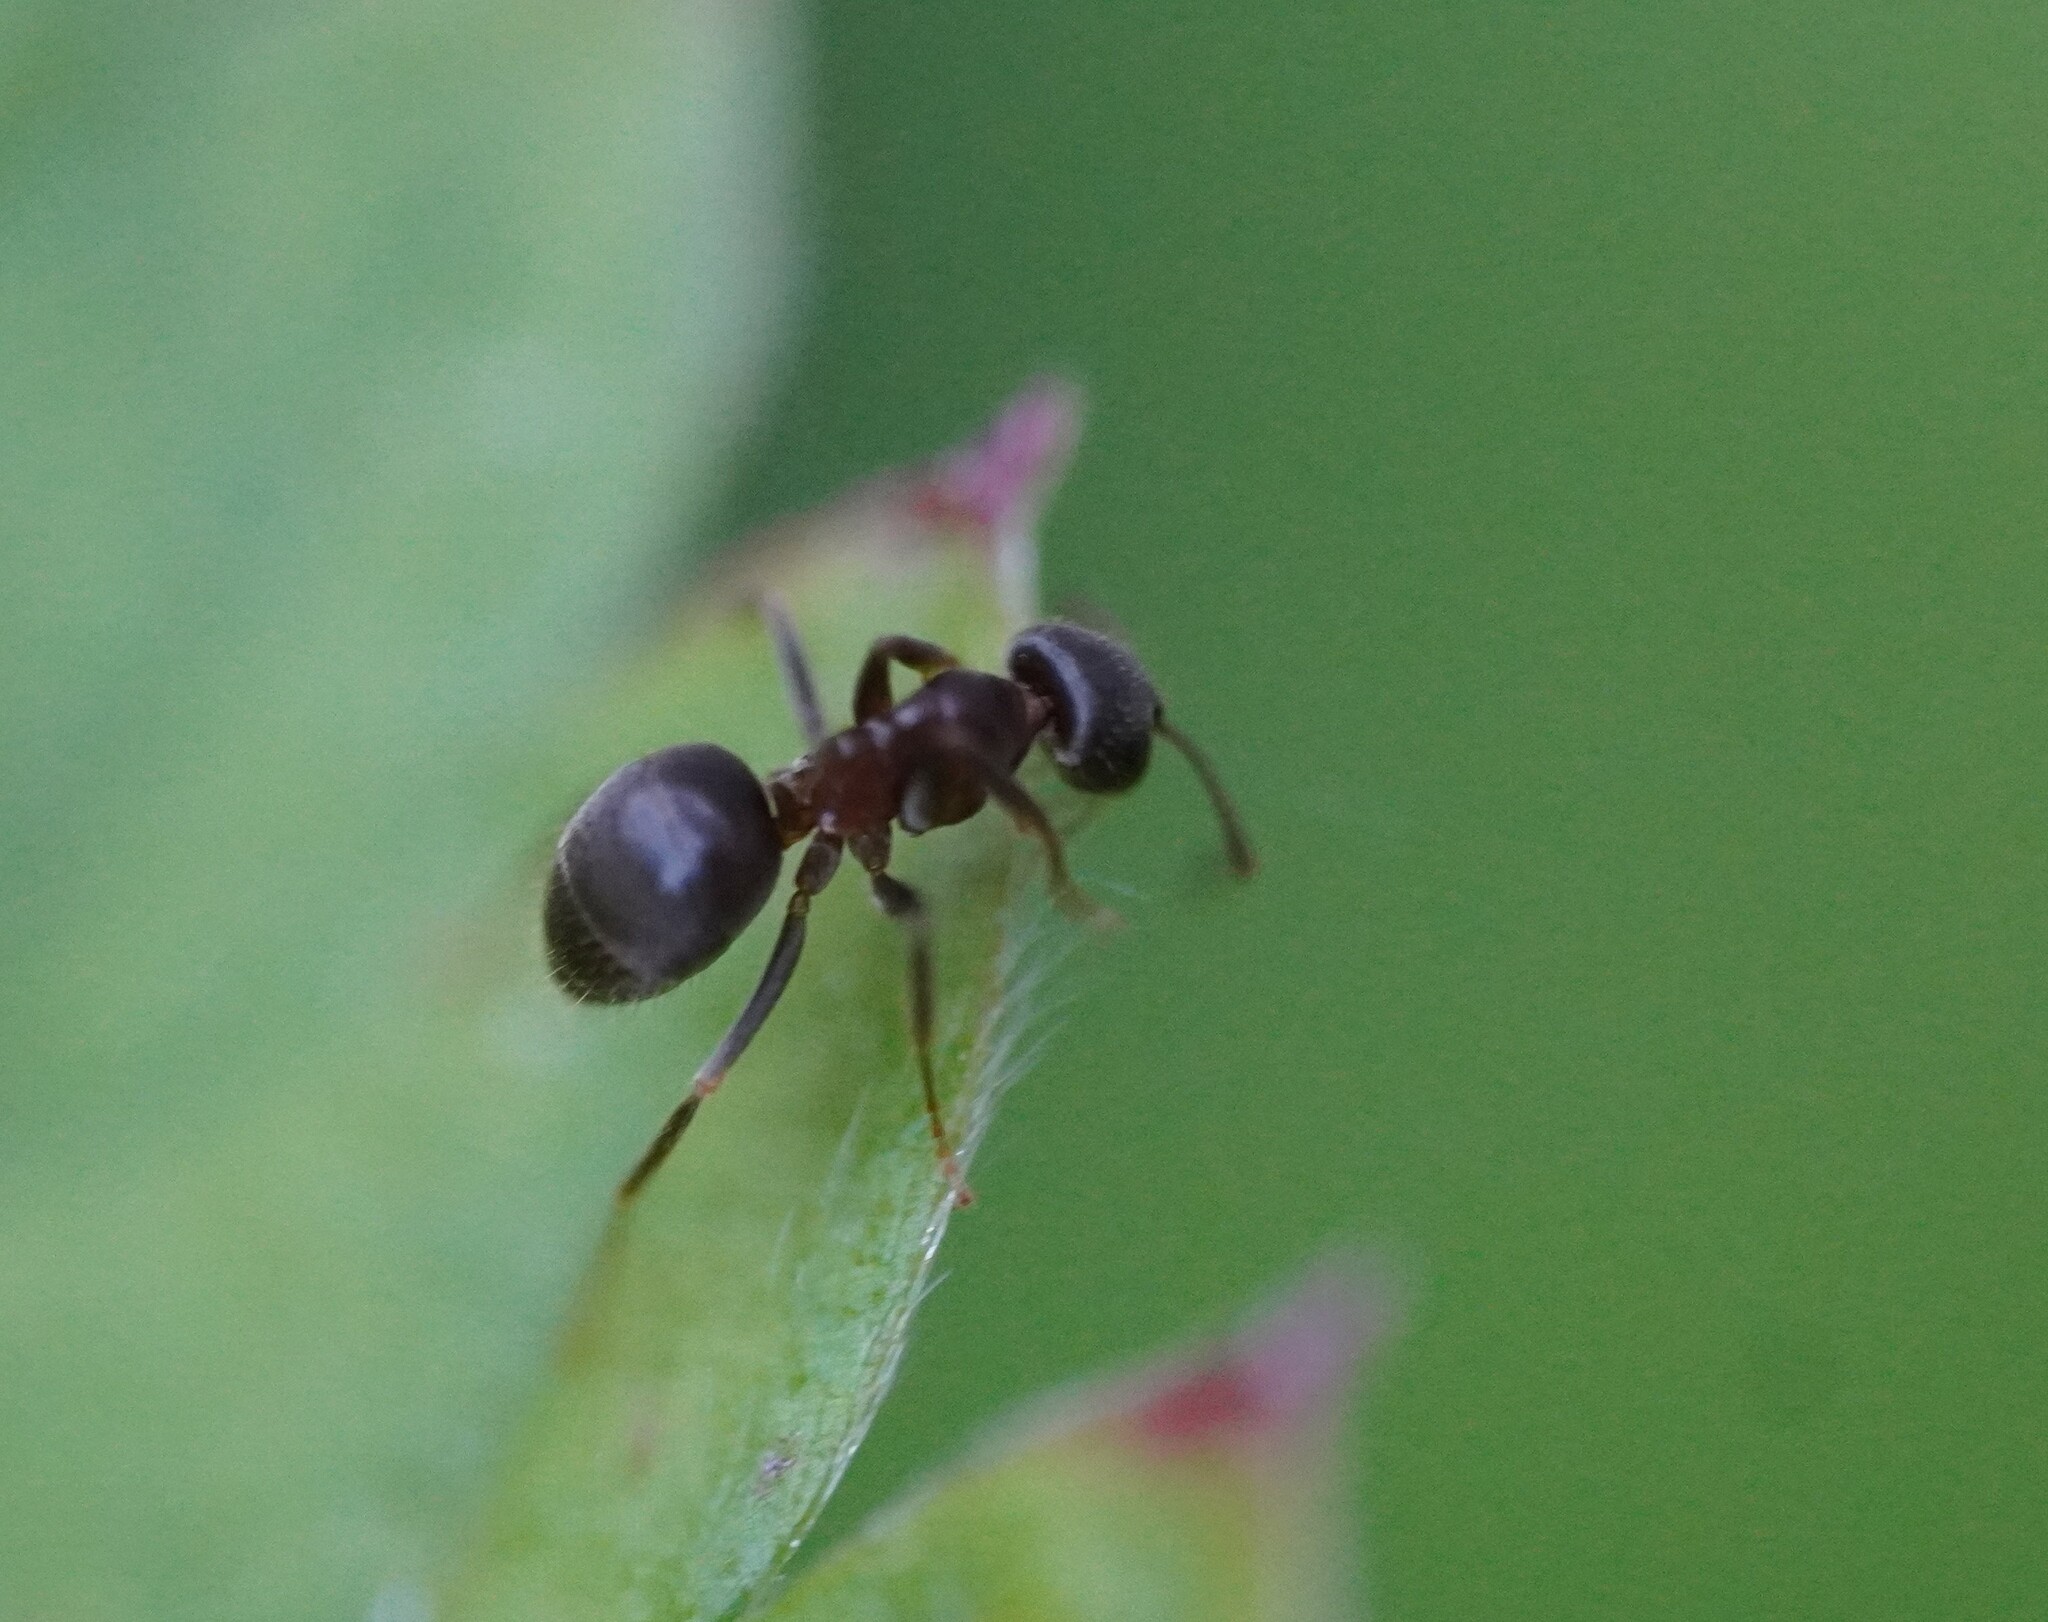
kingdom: Animalia
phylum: Arthropoda
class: Insecta
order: Hymenoptera
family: Formicidae
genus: Lasius
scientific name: Lasius
